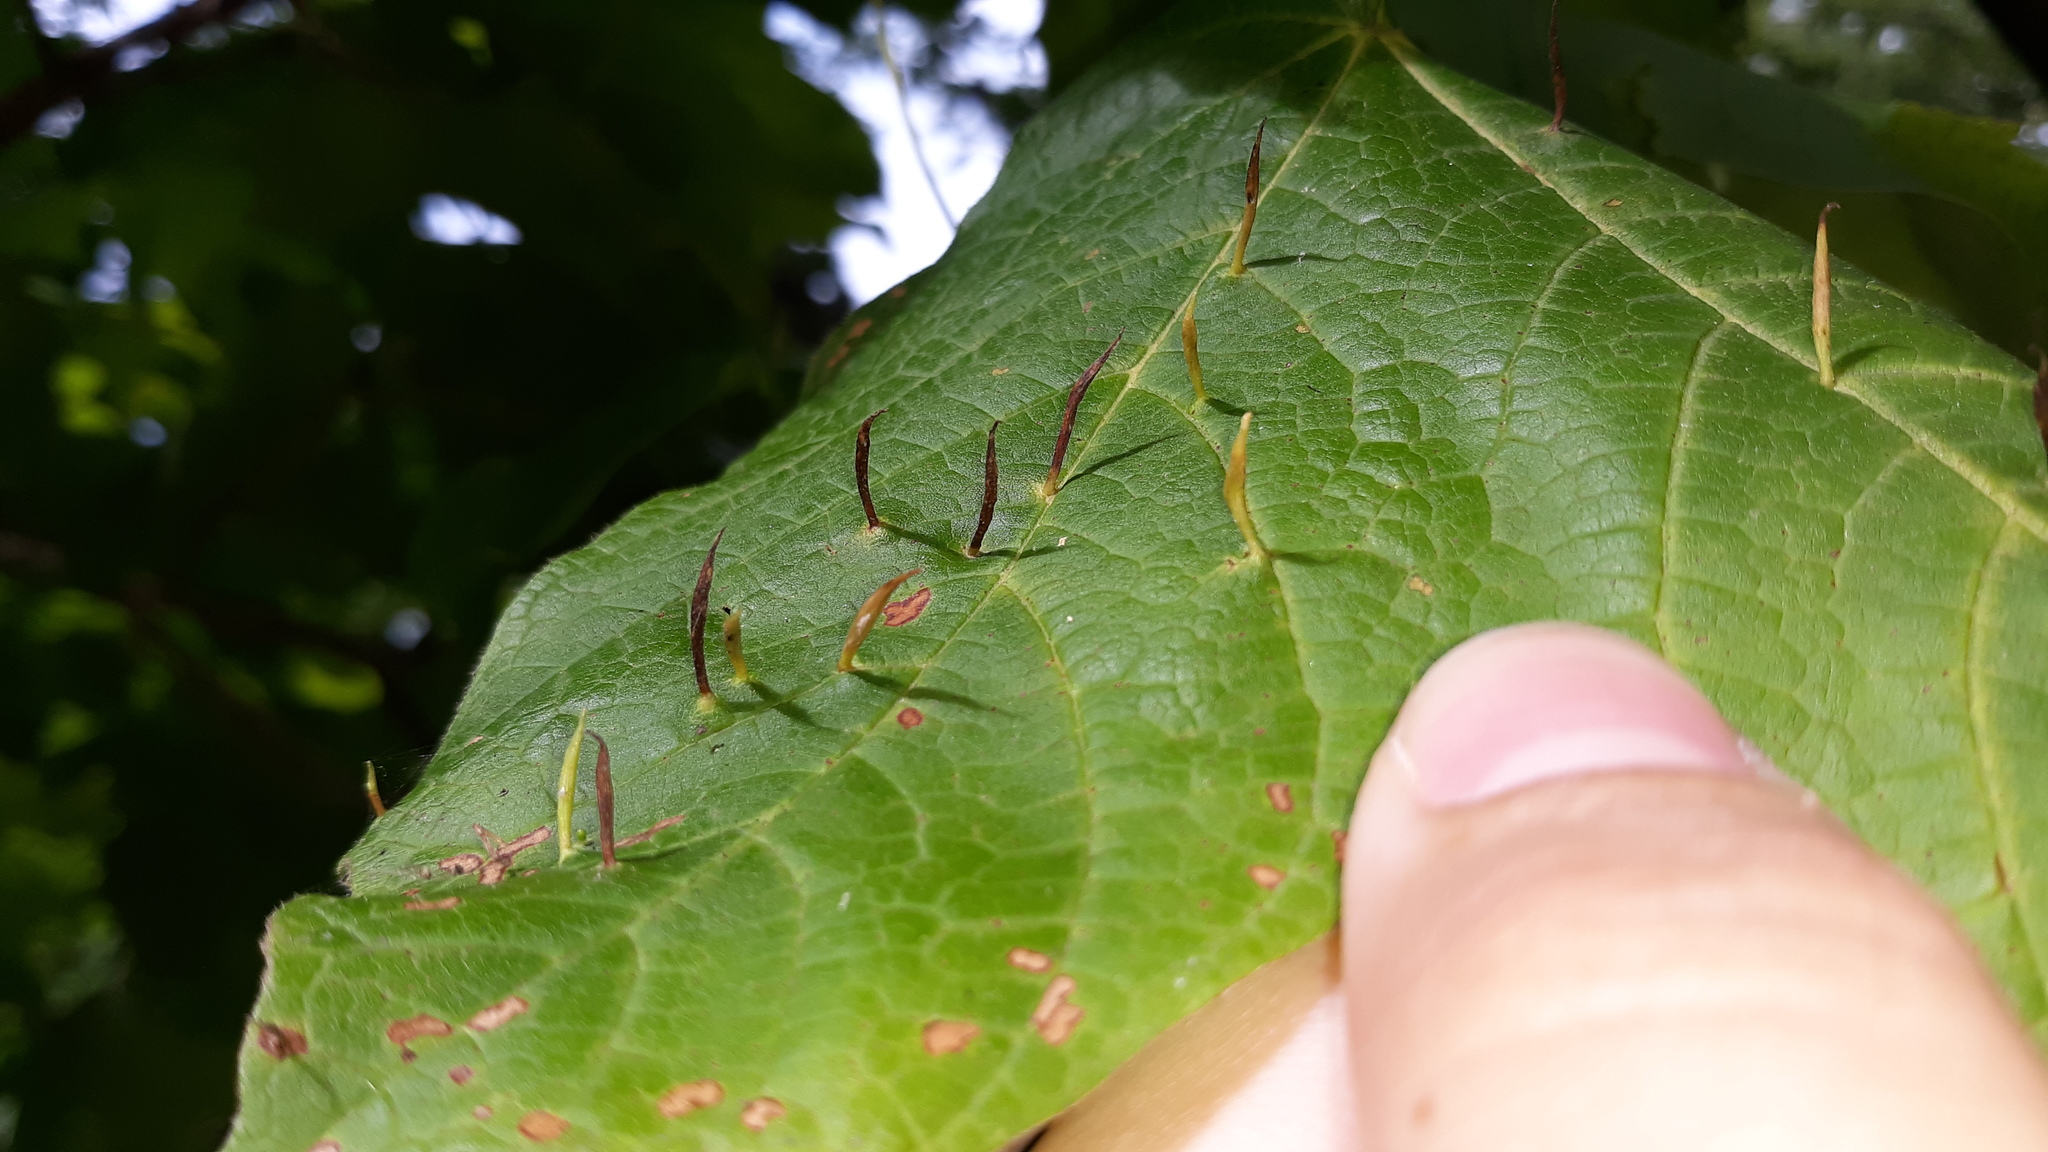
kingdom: Animalia
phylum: Arthropoda
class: Arachnida
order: Trombidiformes
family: Eriophyidae
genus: Vasates
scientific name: Vasates aceriscrumena
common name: Maple spindle gall mite
